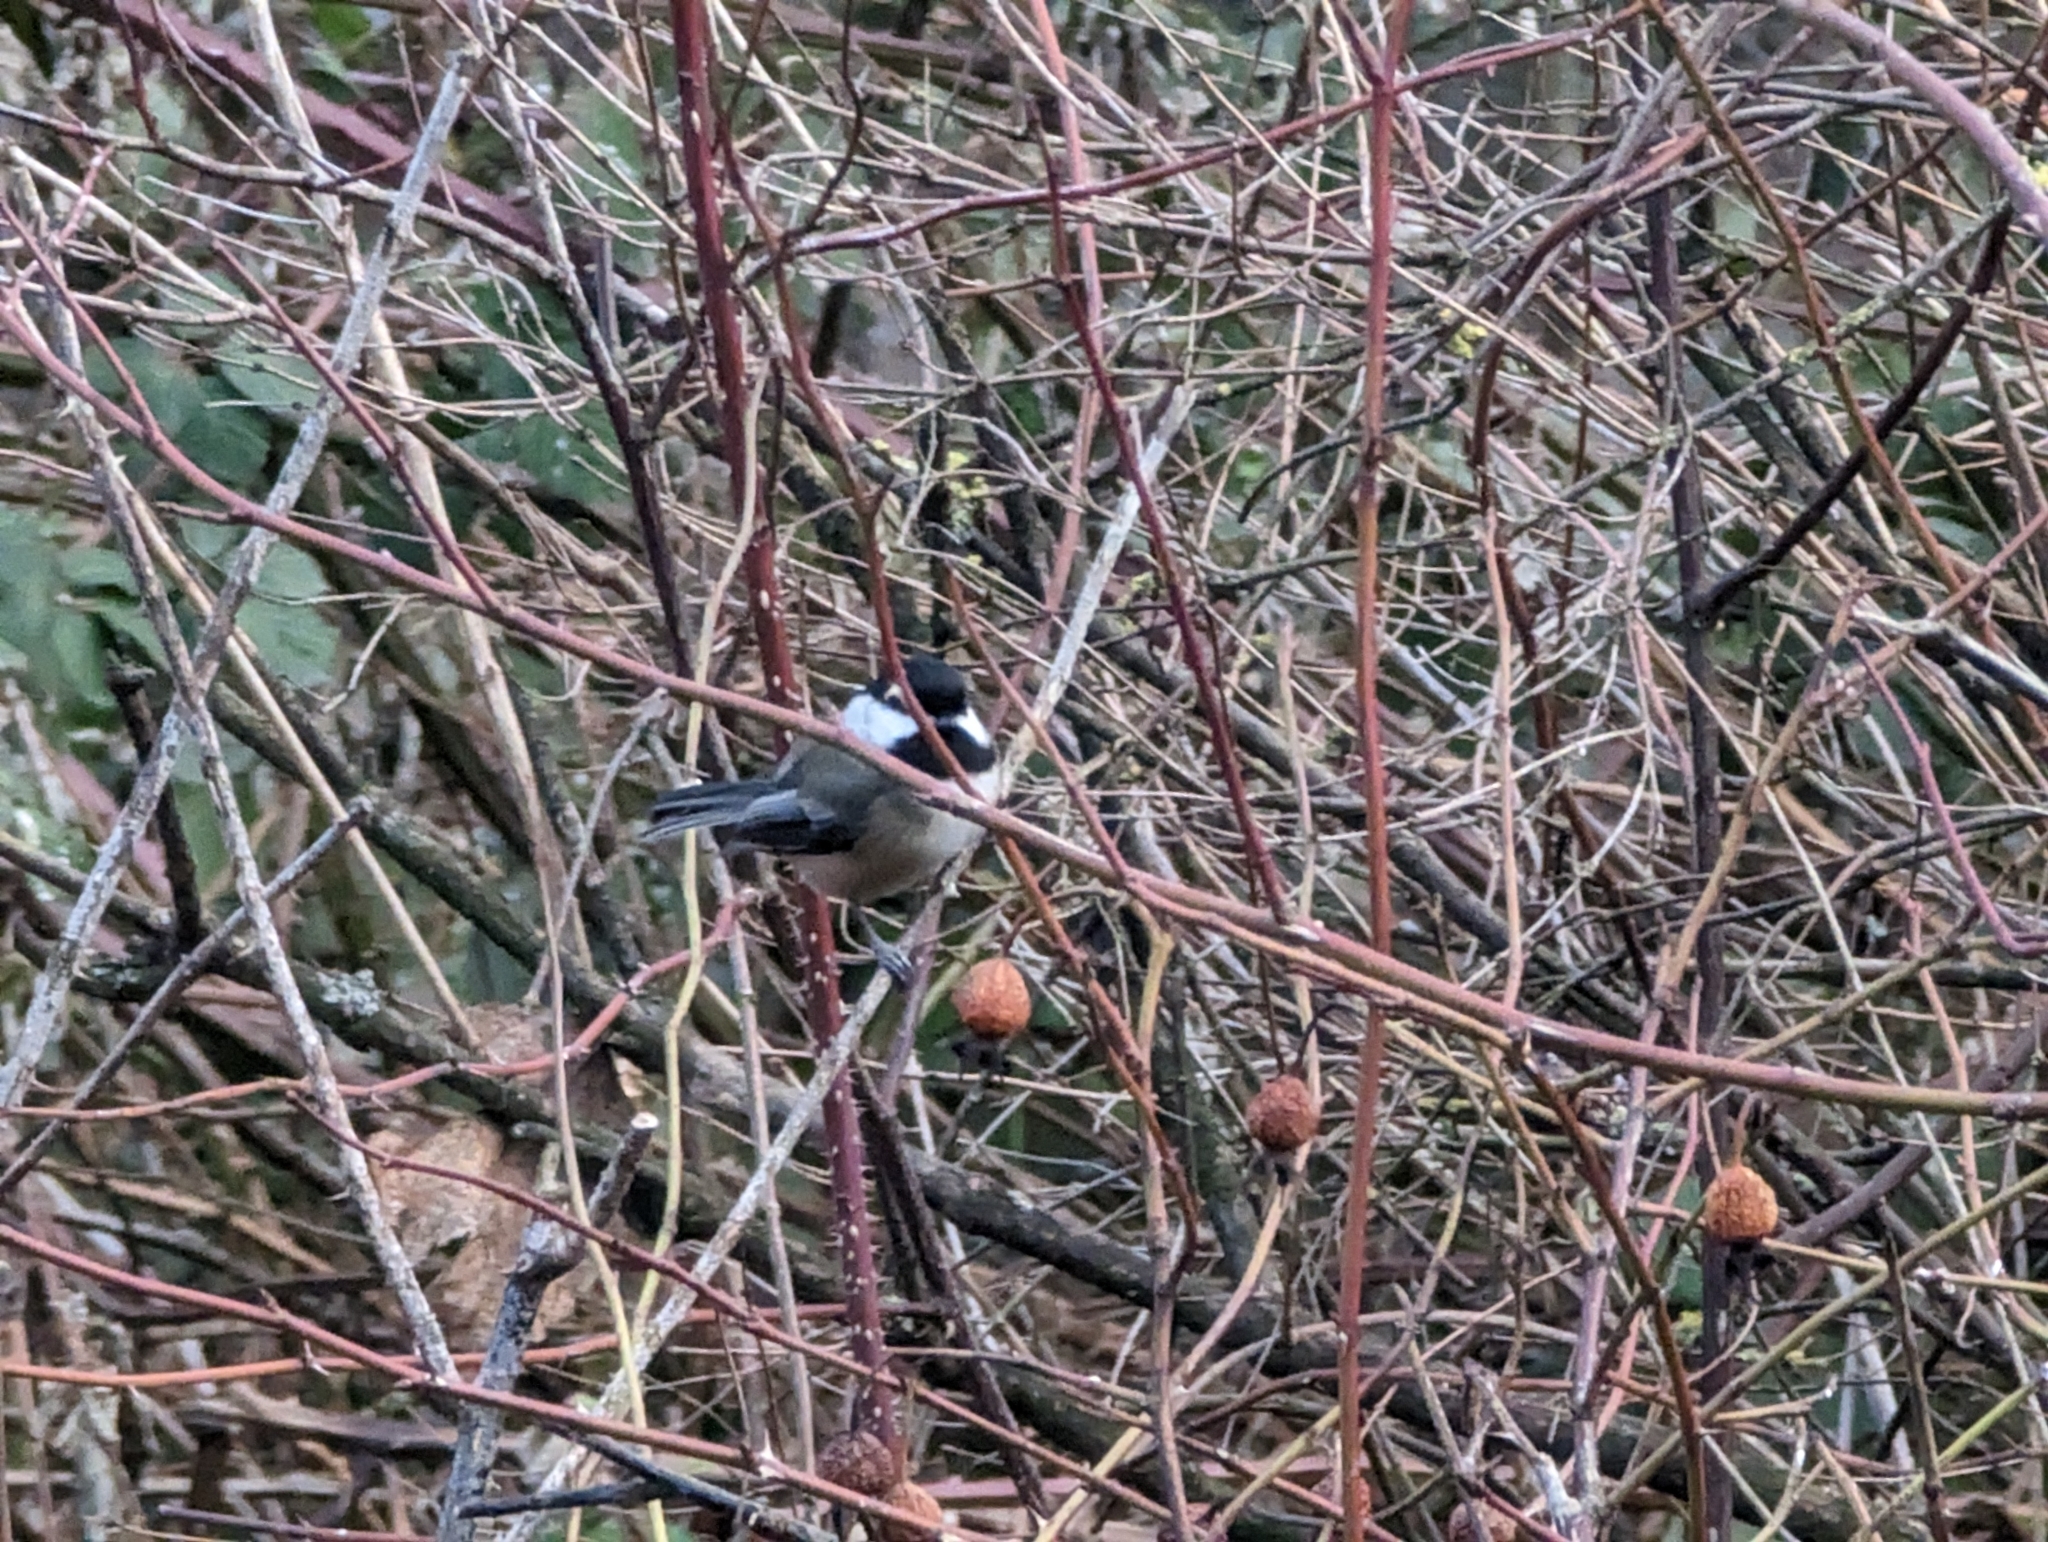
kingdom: Animalia
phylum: Chordata
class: Aves
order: Passeriformes
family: Paridae
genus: Poecile
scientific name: Poecile atricapillus
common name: Black-capped chickadee
